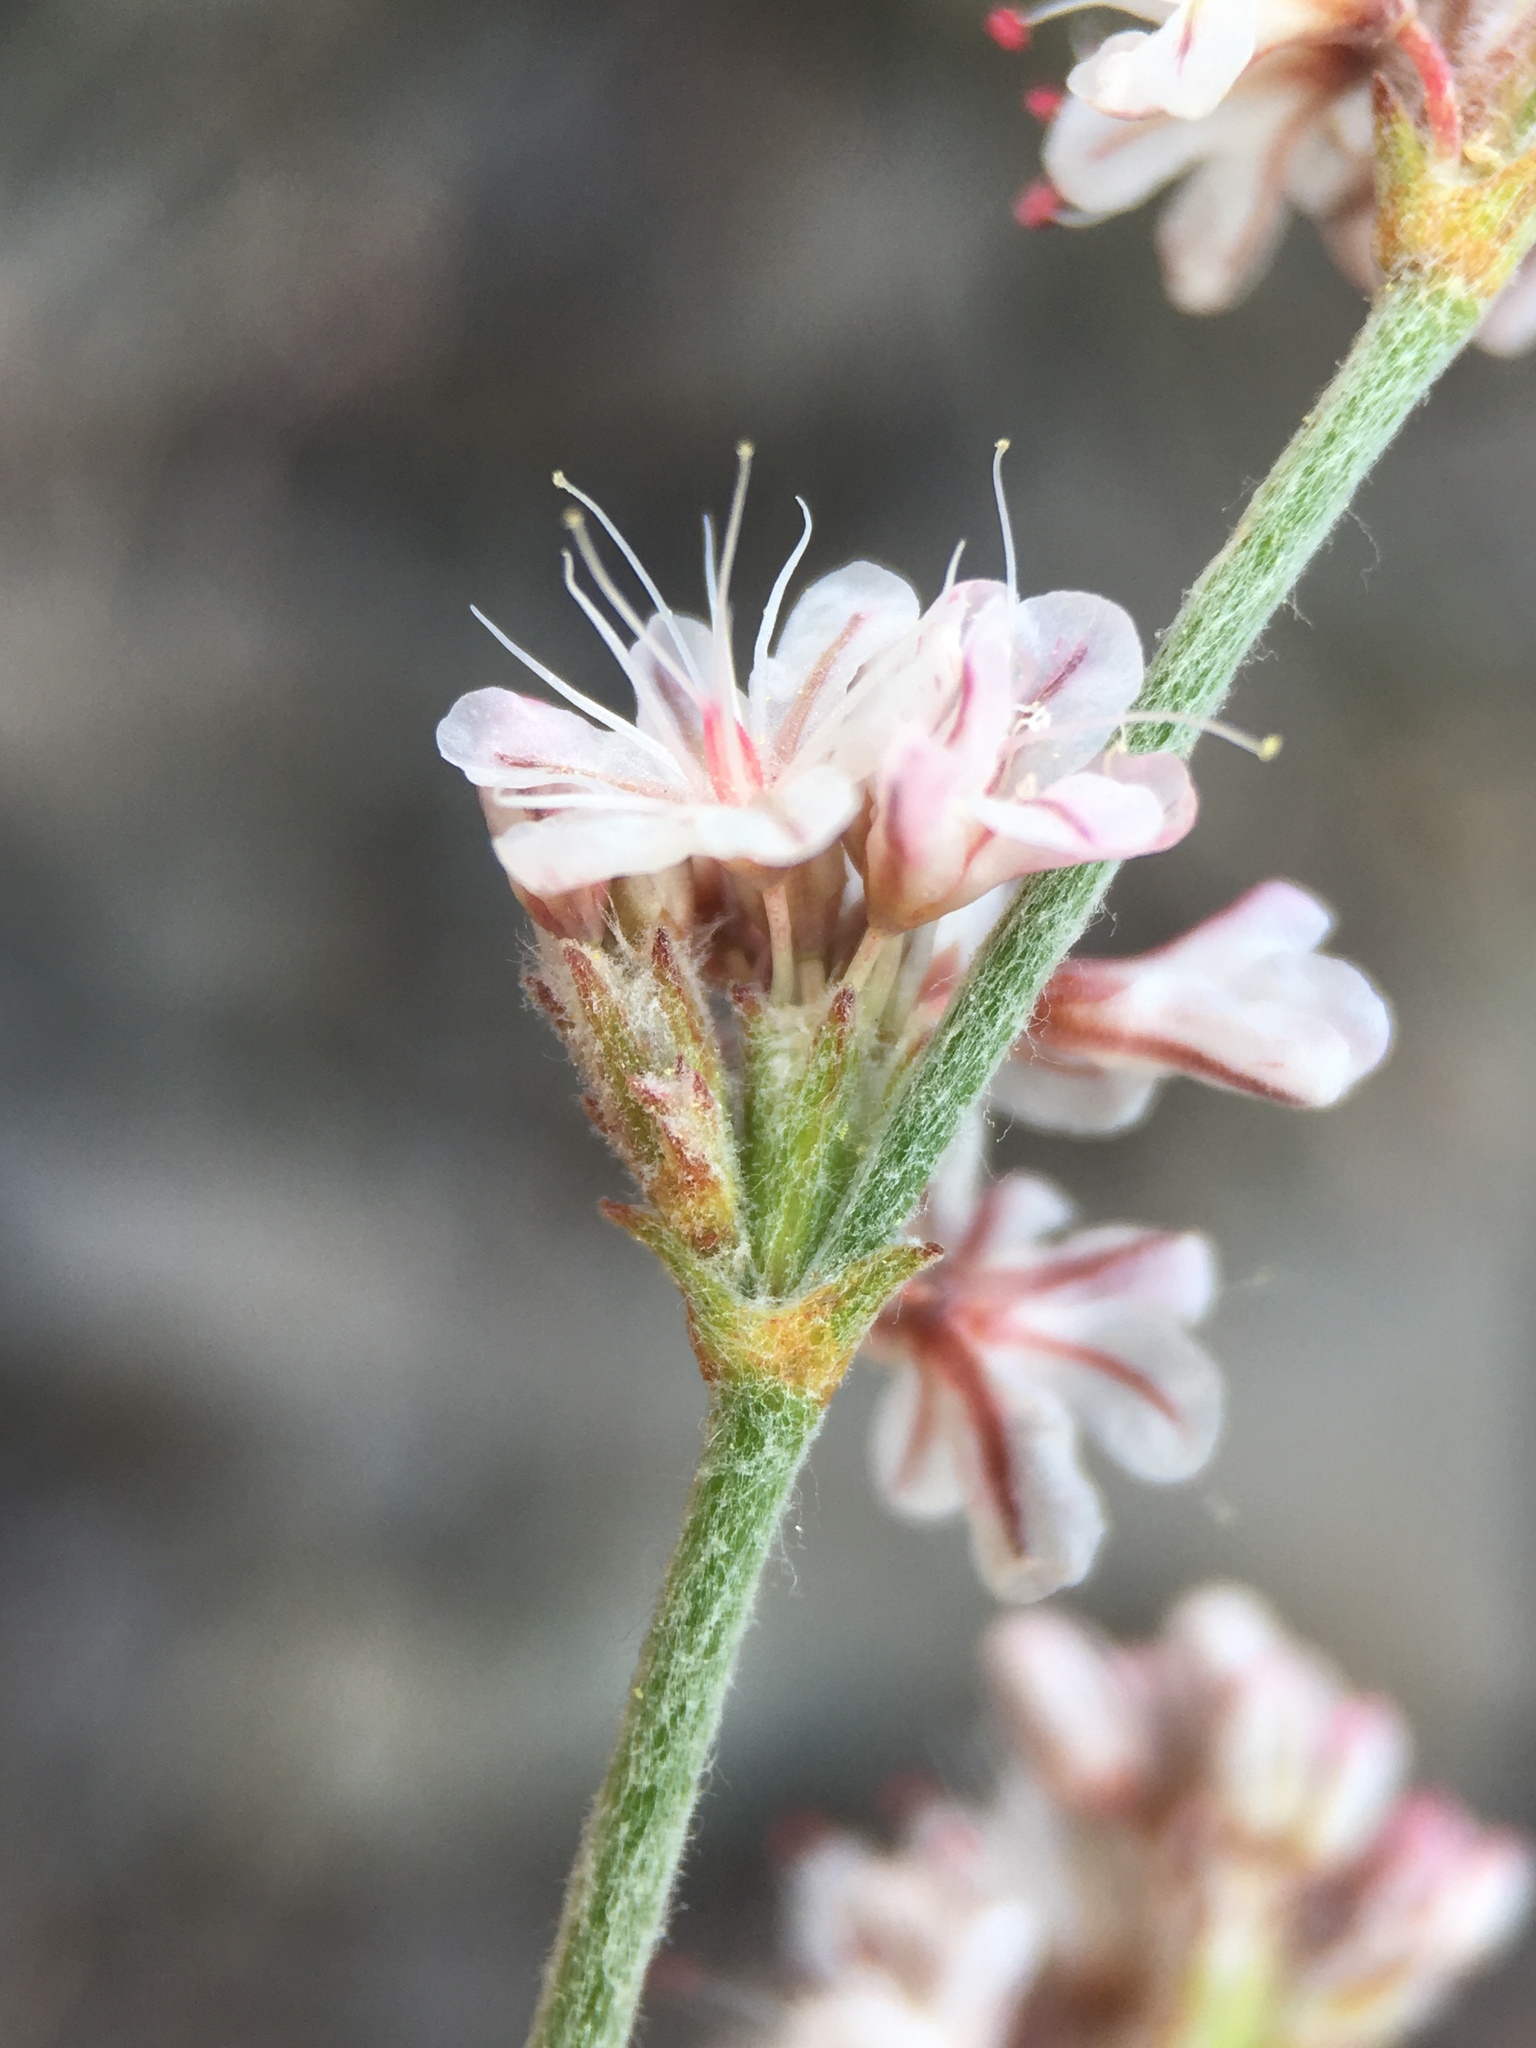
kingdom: Plantae
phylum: Tracheophyta
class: Magnoliopsida
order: Caryophyllales
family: Polygonaceae
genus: Eriogonum
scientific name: Eriogonum wrightii
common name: Bastard-sage
